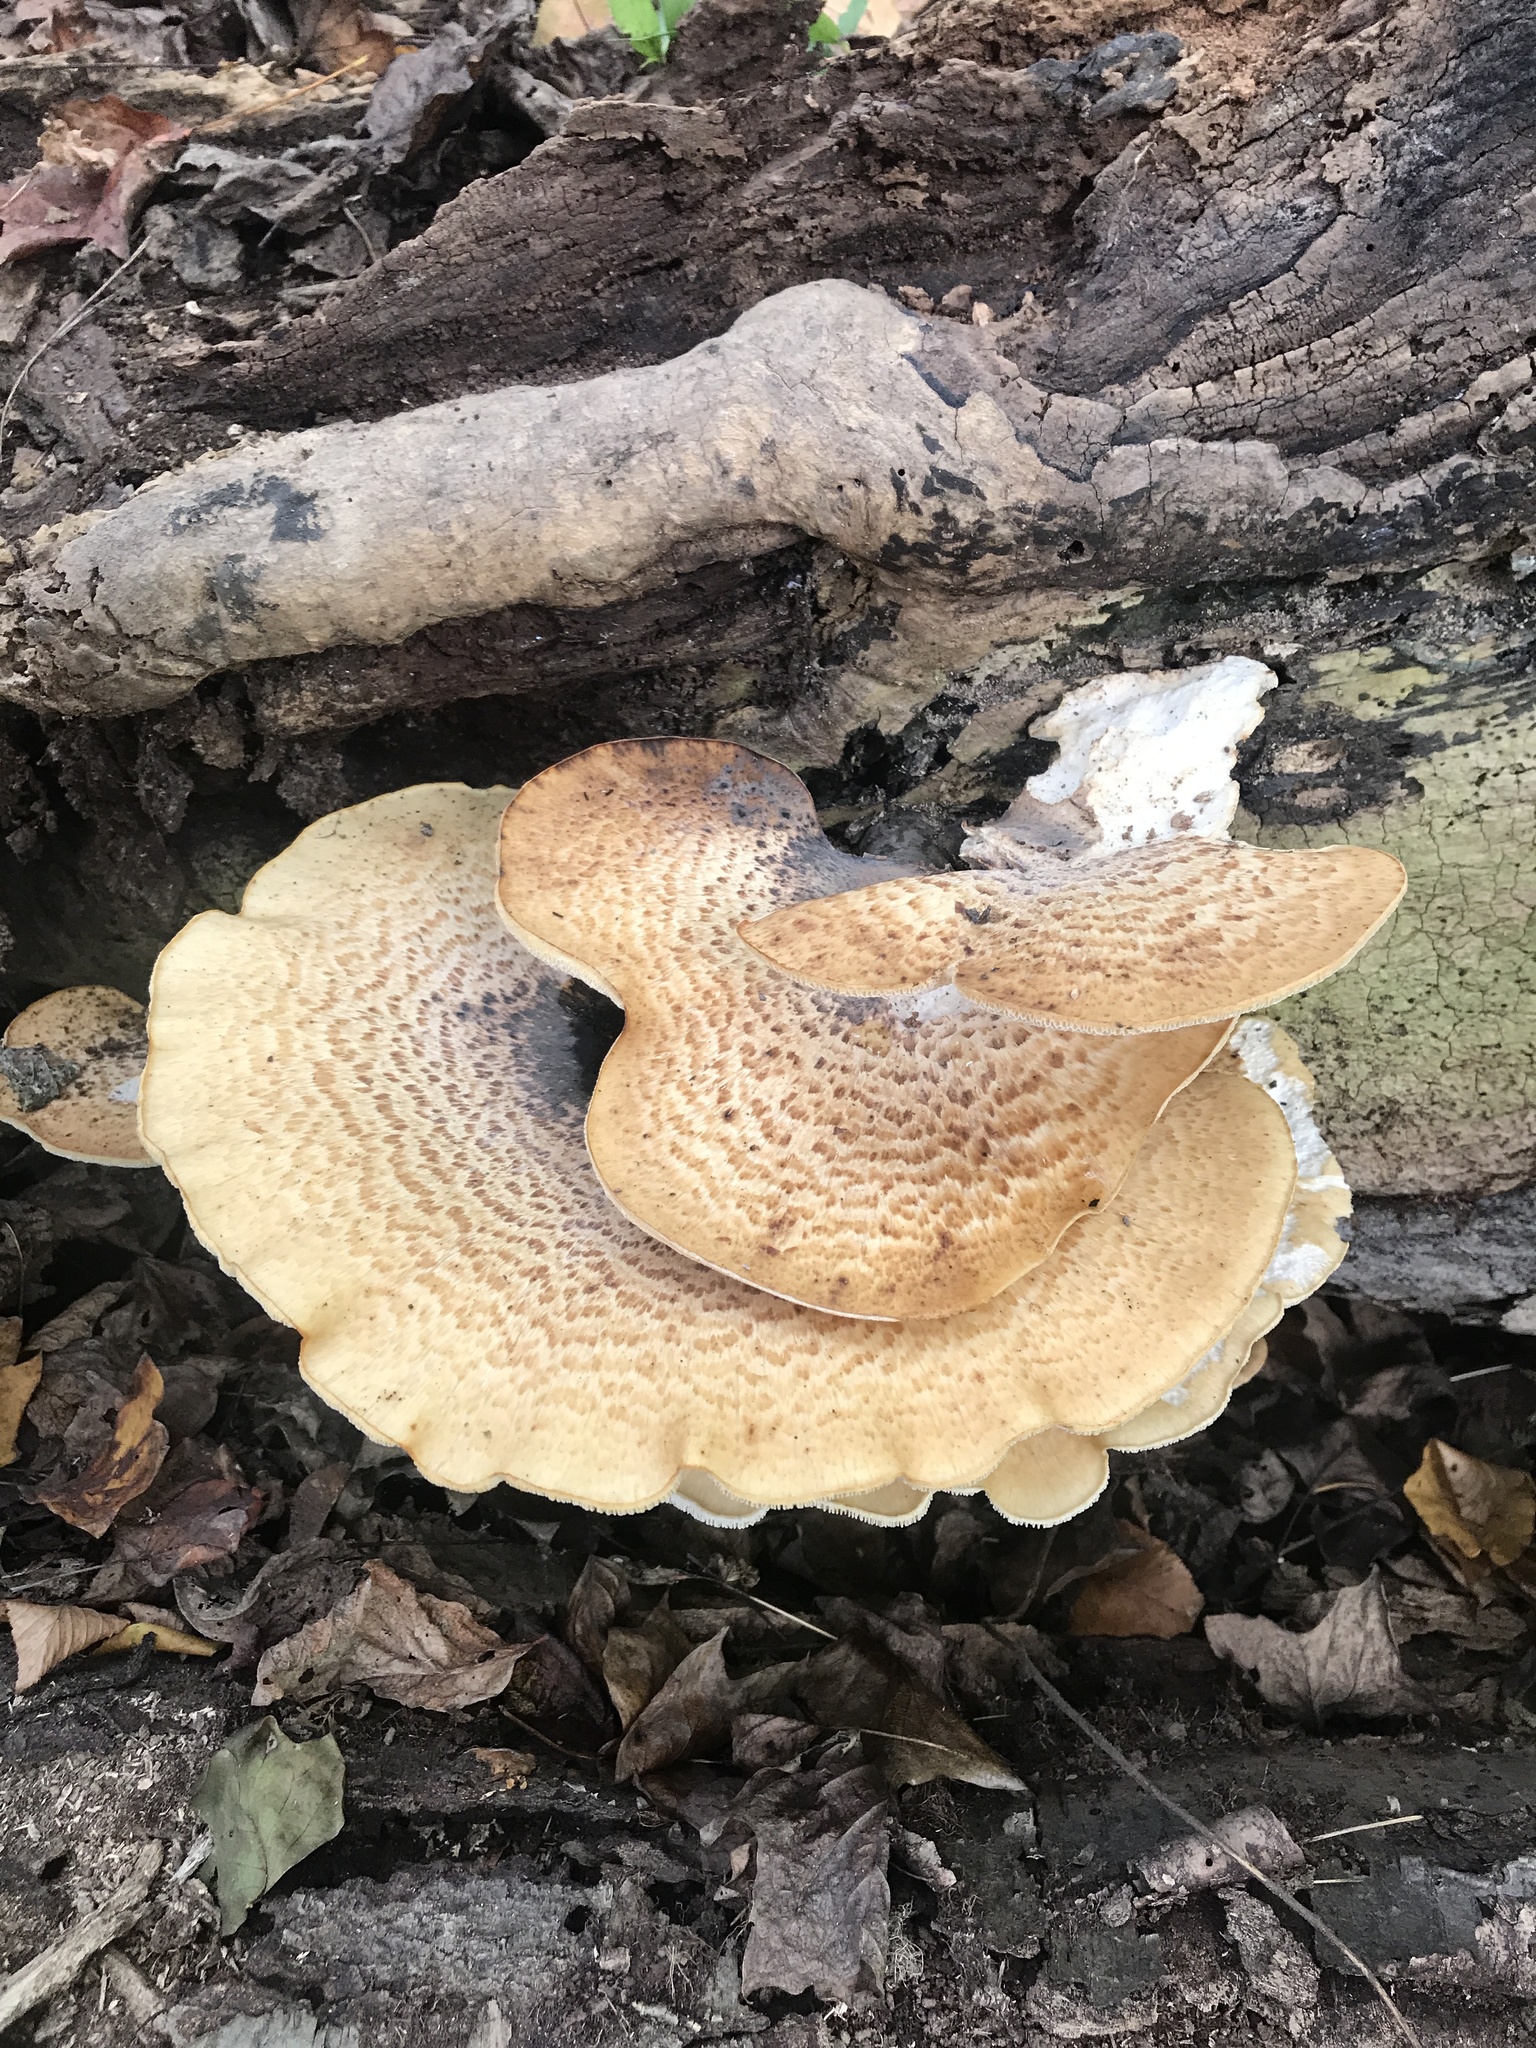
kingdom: Fungi
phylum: Basidiomycota
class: Agaricomycetes
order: Polyporales
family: Polyporaceae
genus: Cerioporus
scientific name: Cerioporus squamosus
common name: Dryad's saddle
